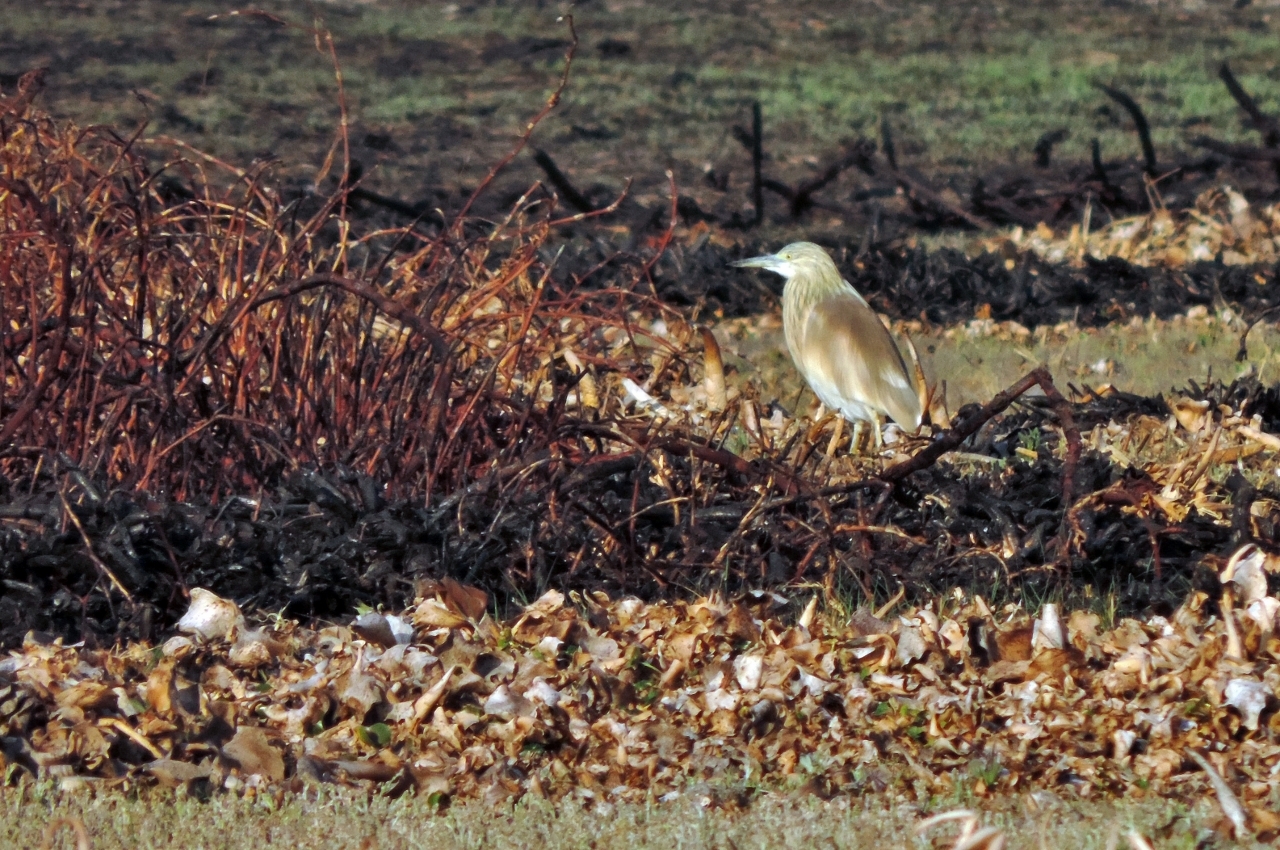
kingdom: Animalia
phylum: Chordata
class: Aves
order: Pelecaniformes
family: Ardeidae
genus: Ardeola
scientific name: Ardeola ralloides
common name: Squacco heron
